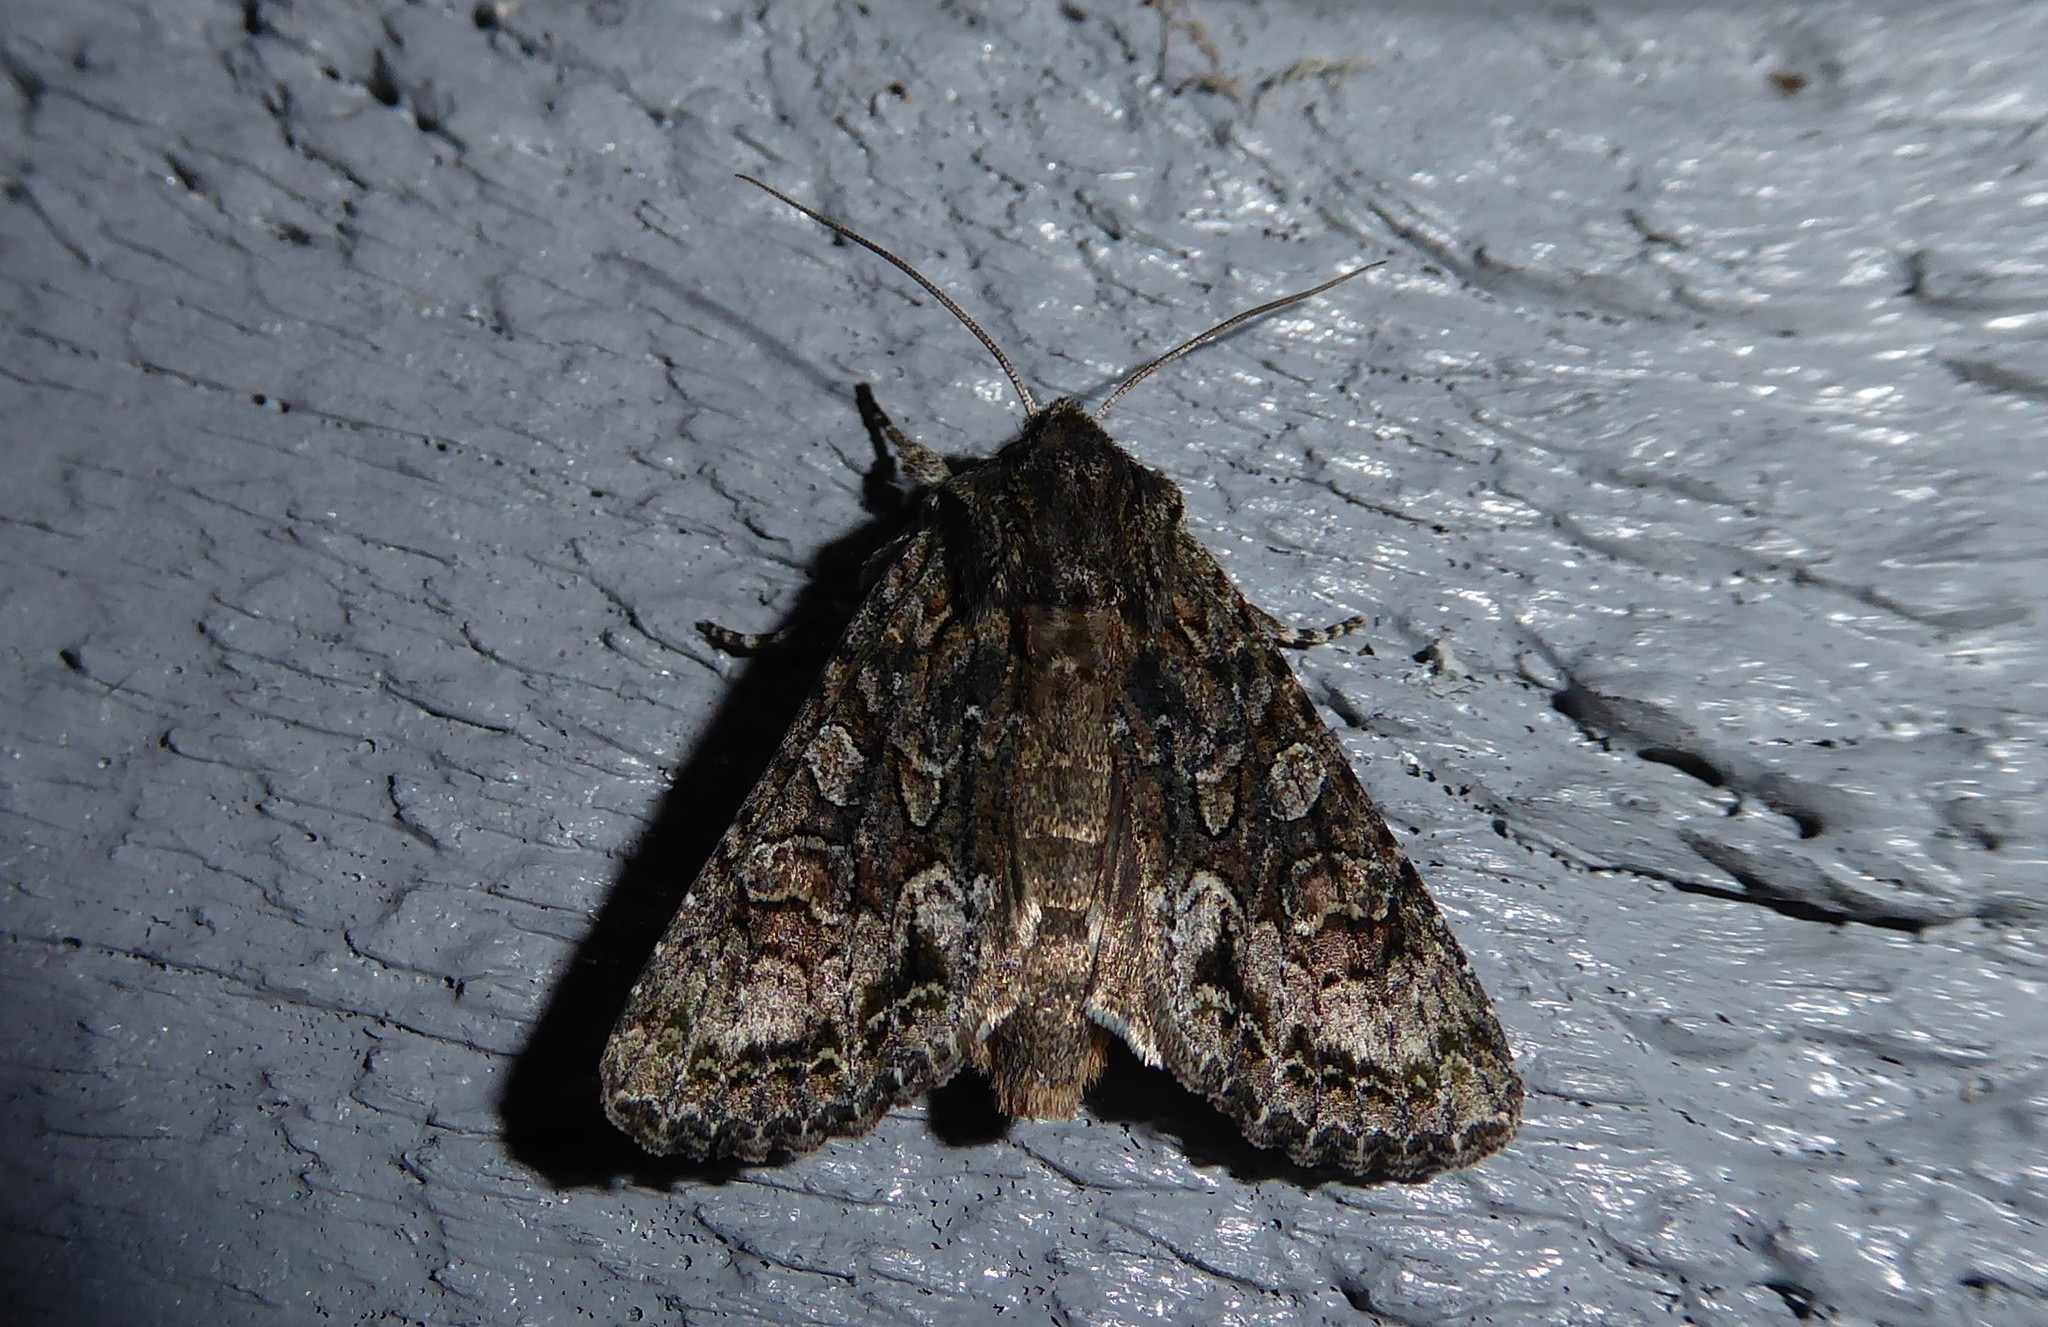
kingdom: Animalia
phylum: Arthropoda
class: Insecta
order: Lepidoptera
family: Noctuidae
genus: Ichneutica
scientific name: Ichneutica mutans
